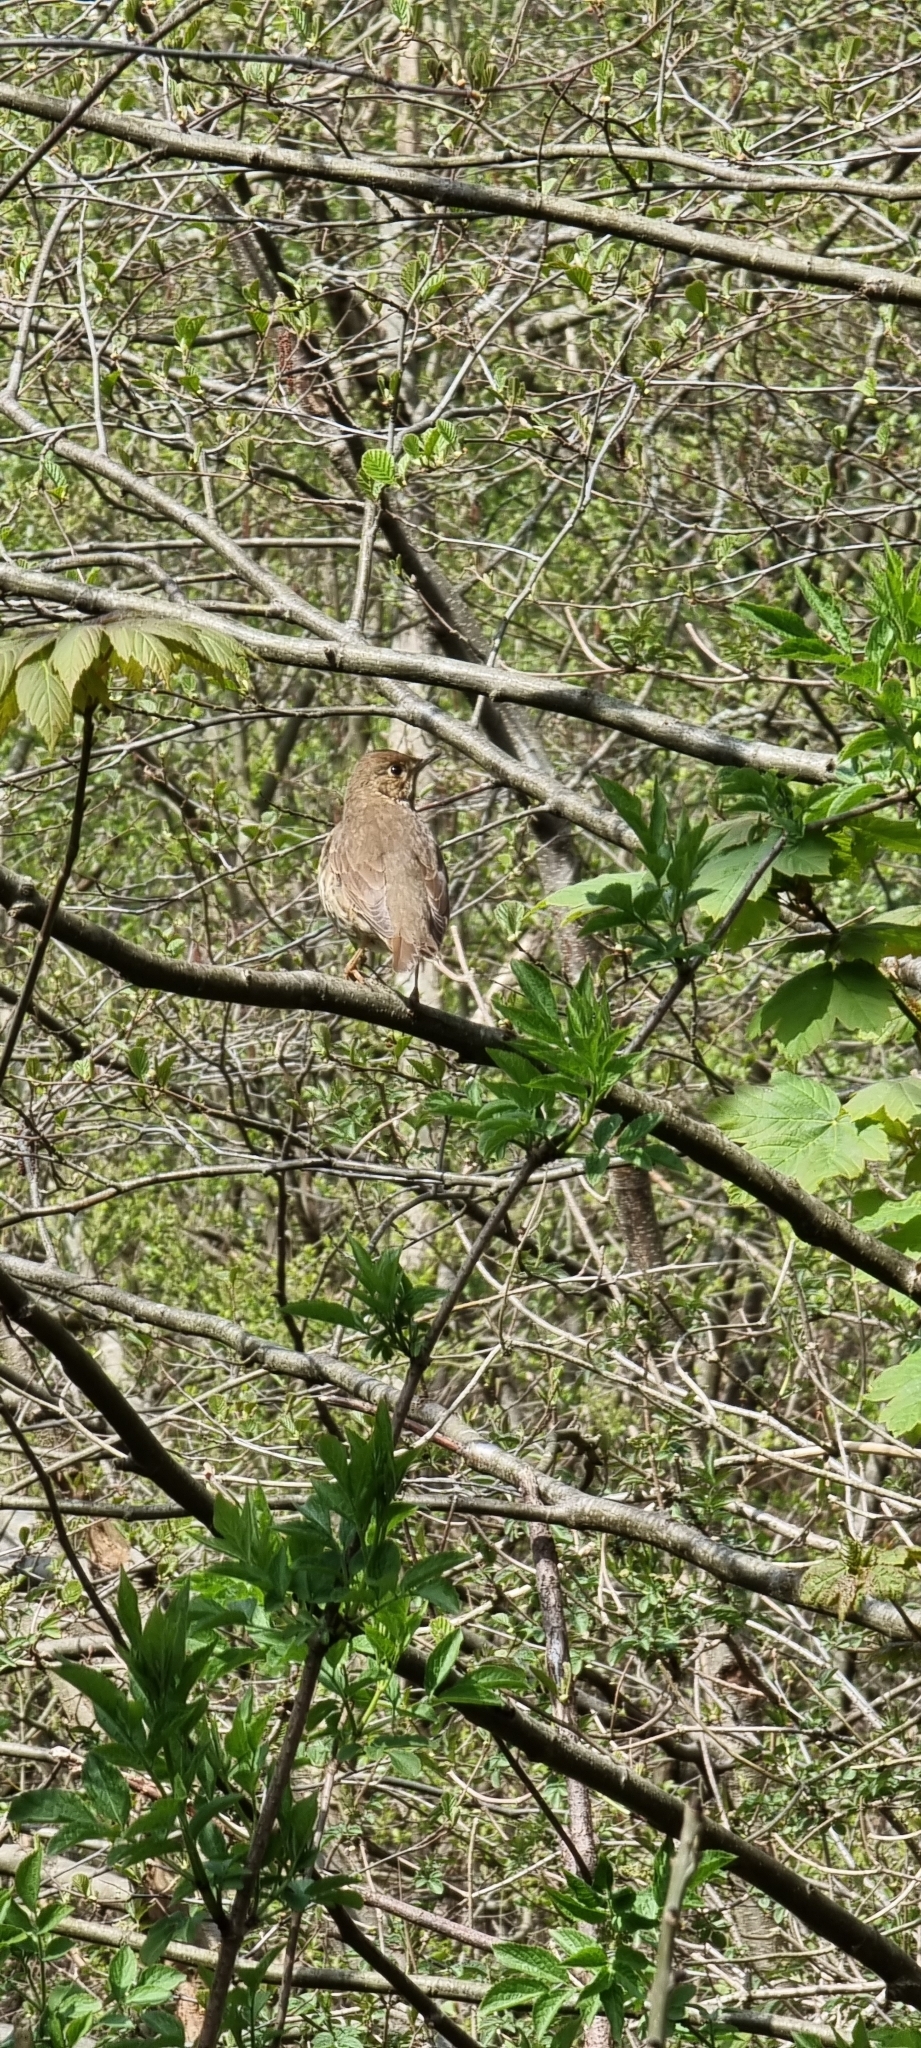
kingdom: Animalia
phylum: Chordata
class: Aves
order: Passeriformes
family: Turdidae
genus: Turdus
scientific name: Turdus philomelos
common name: Song thrush
